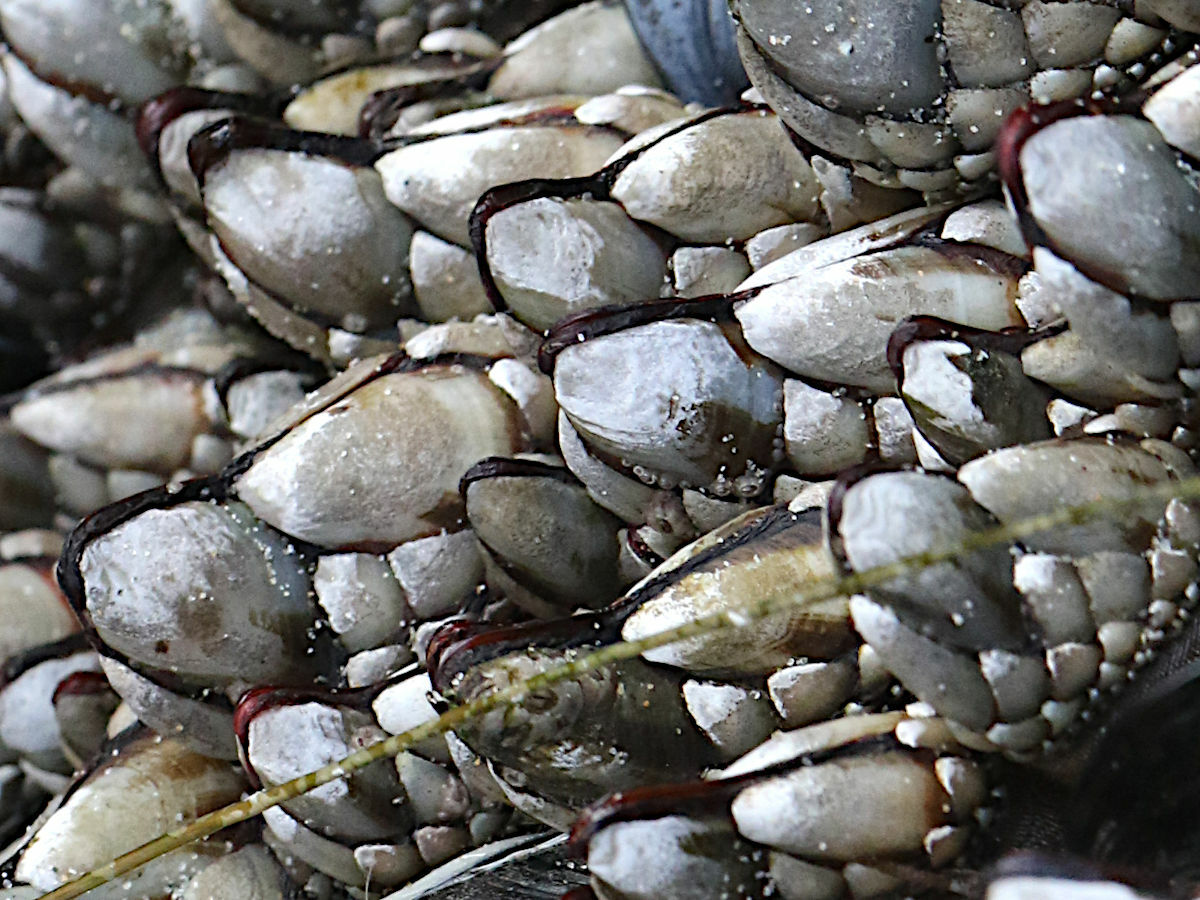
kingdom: Animalia
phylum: Arthropoda
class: Maxillopoda
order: Pedunculata
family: Pollicipedidae
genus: Pollicipes
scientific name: Pollicipes polymerus
